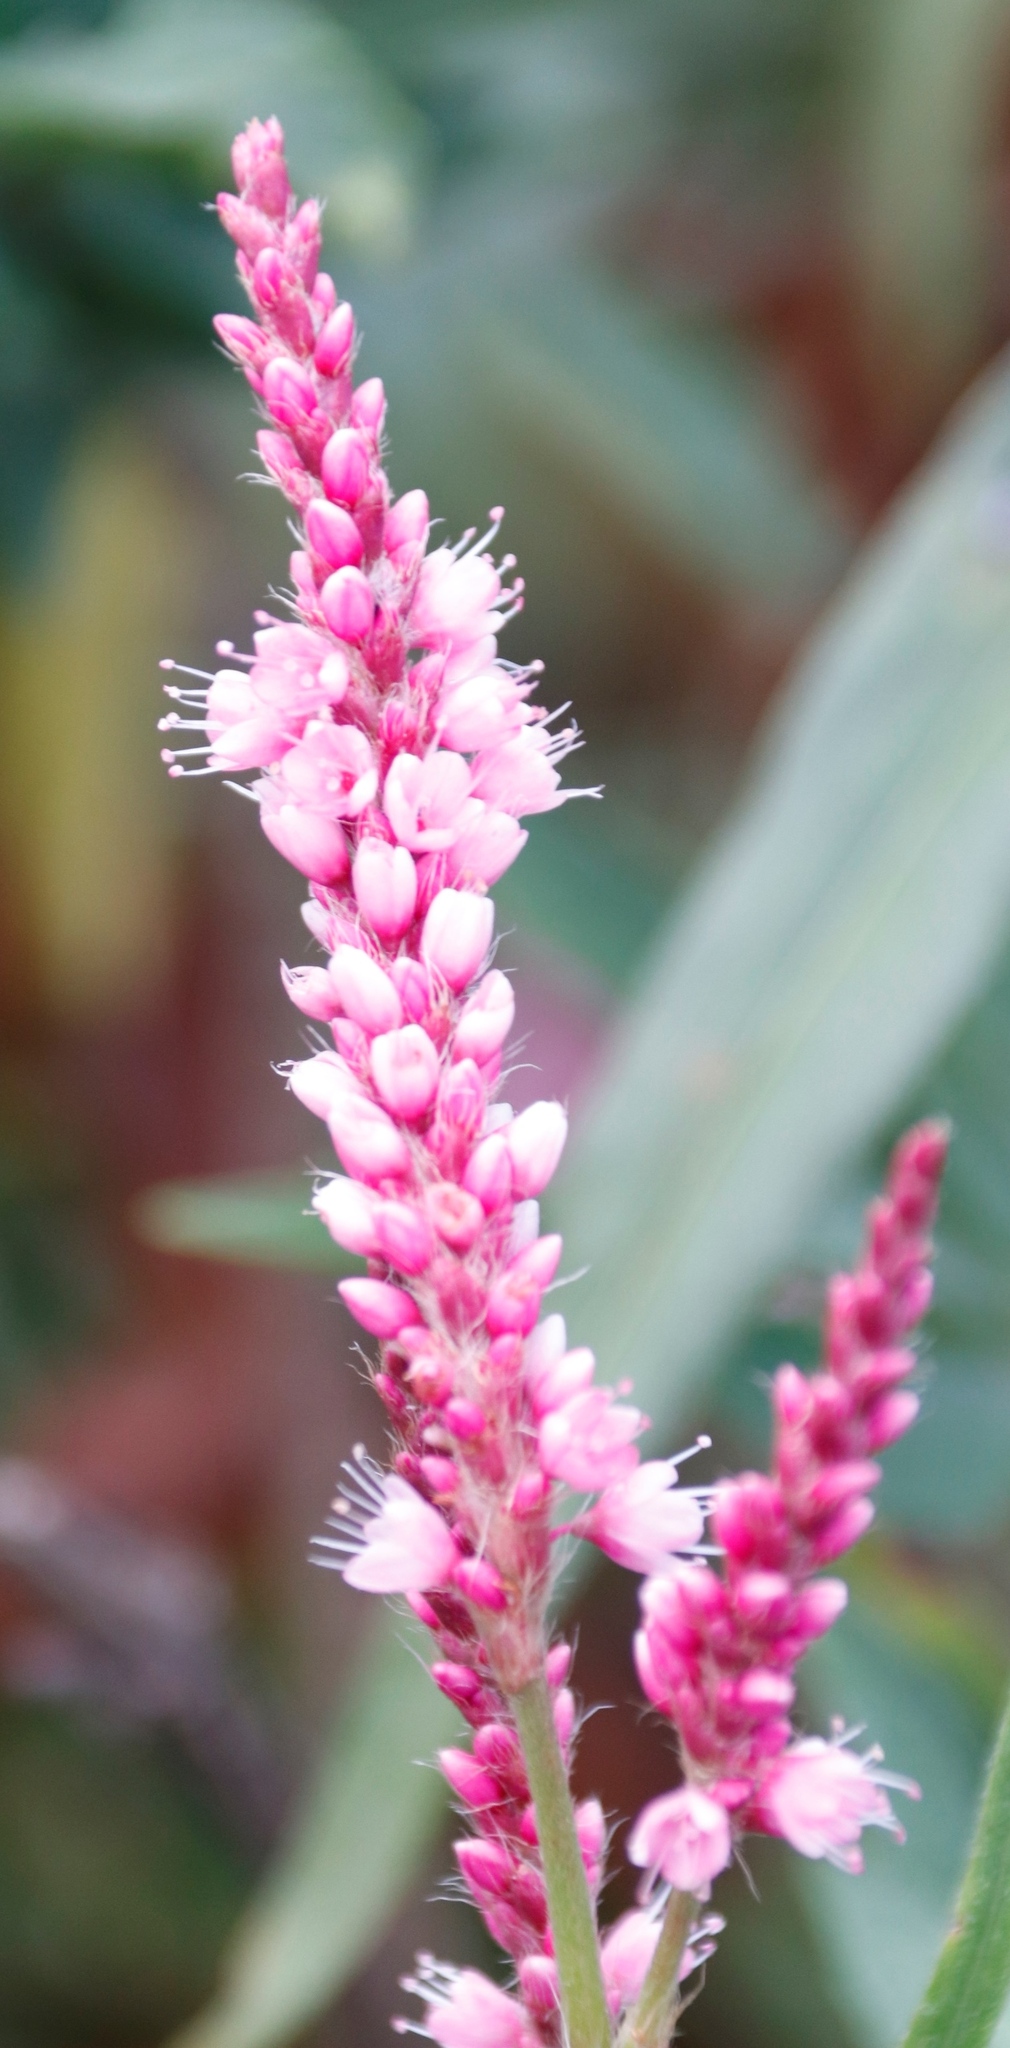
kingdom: Plantae
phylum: Tracheophyta
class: Magnoliopsida
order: Caryophyllales
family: Polygonaceae
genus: Persicaria
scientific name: Persicaria madagascariensis
